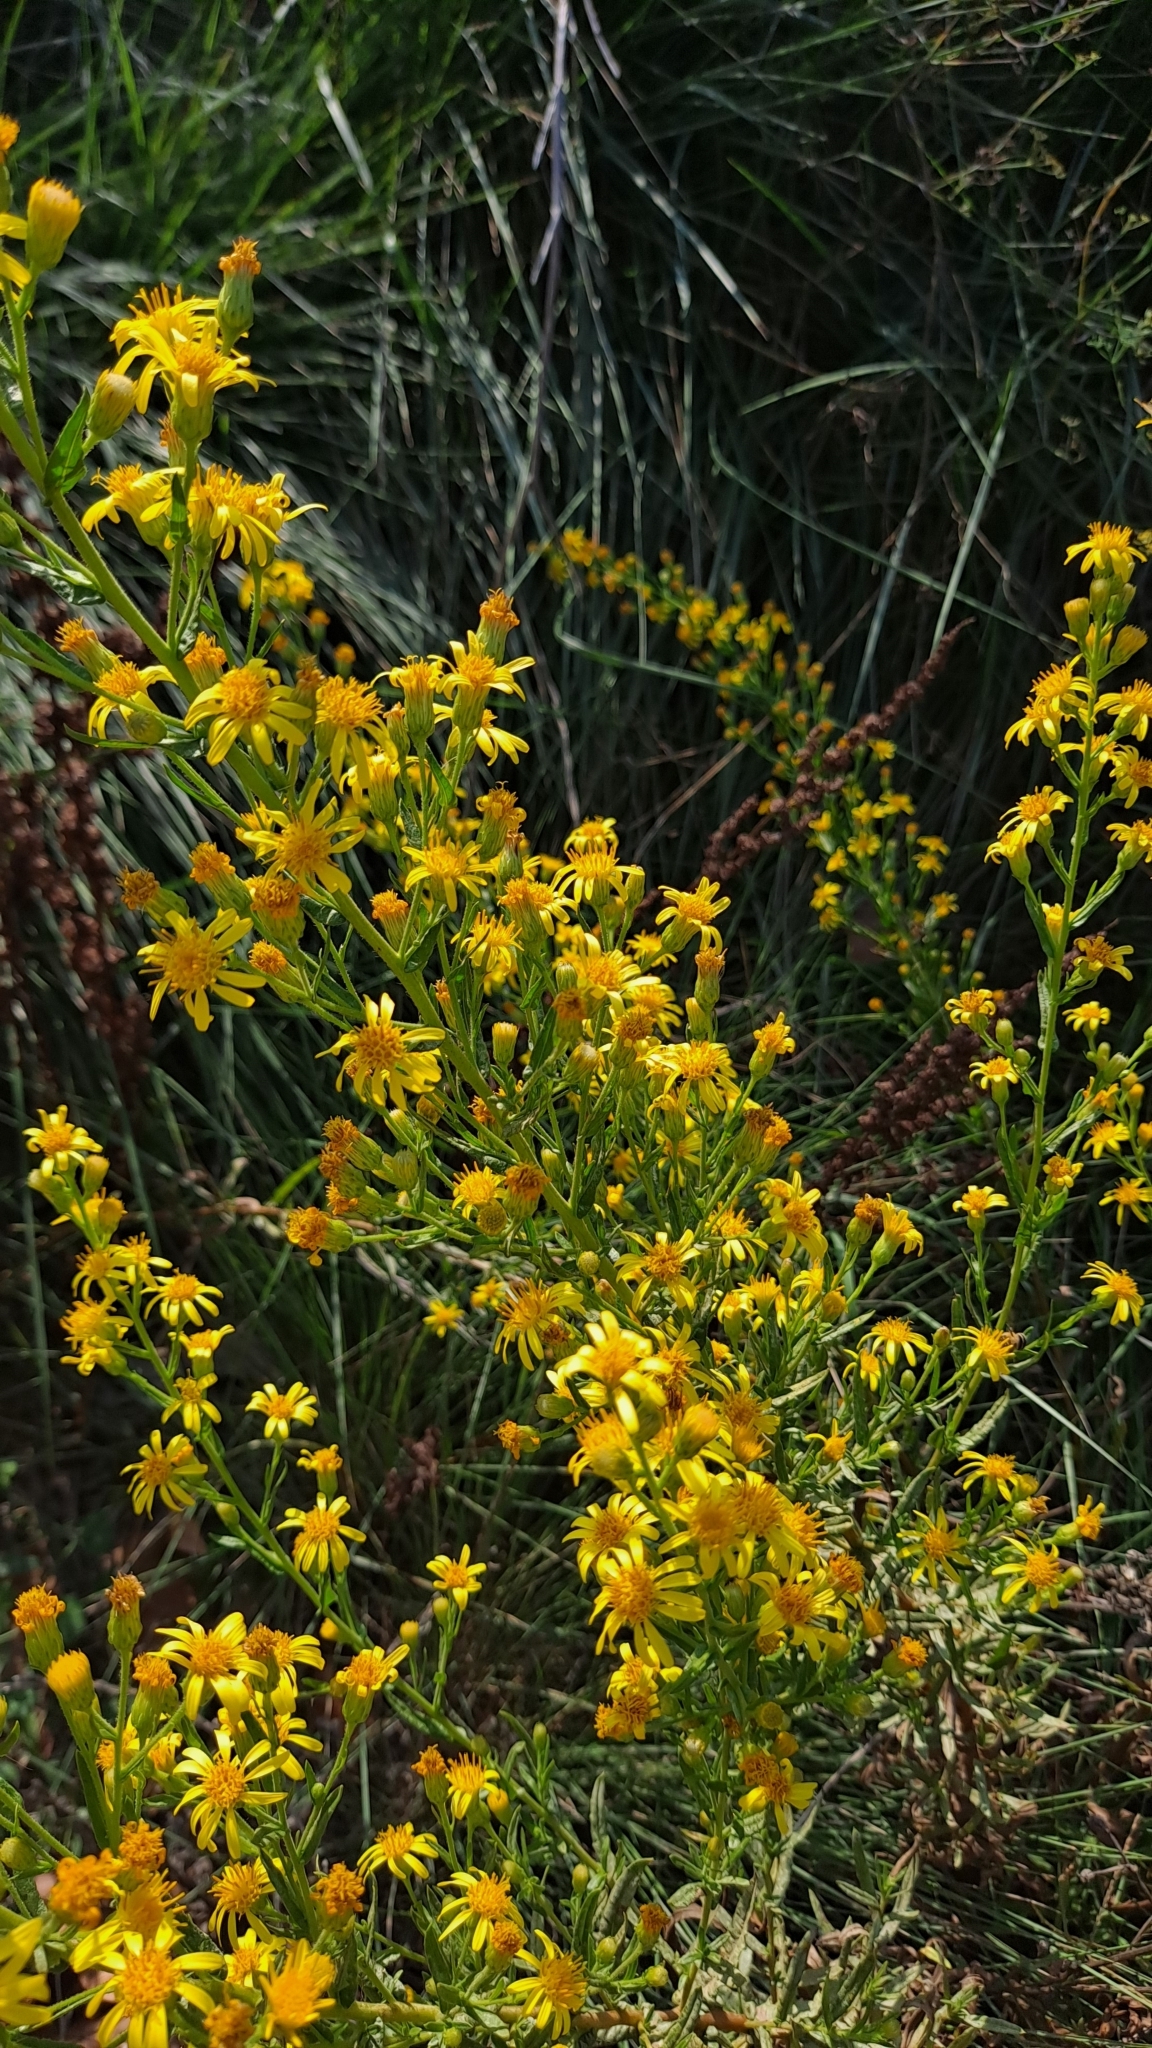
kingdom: Plantae
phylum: Tracheophyta
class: Magnoliopsida
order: Asterales
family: Asteraceae
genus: Dittrichia
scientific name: Dittrichia viscosa
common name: Woody fleabane
